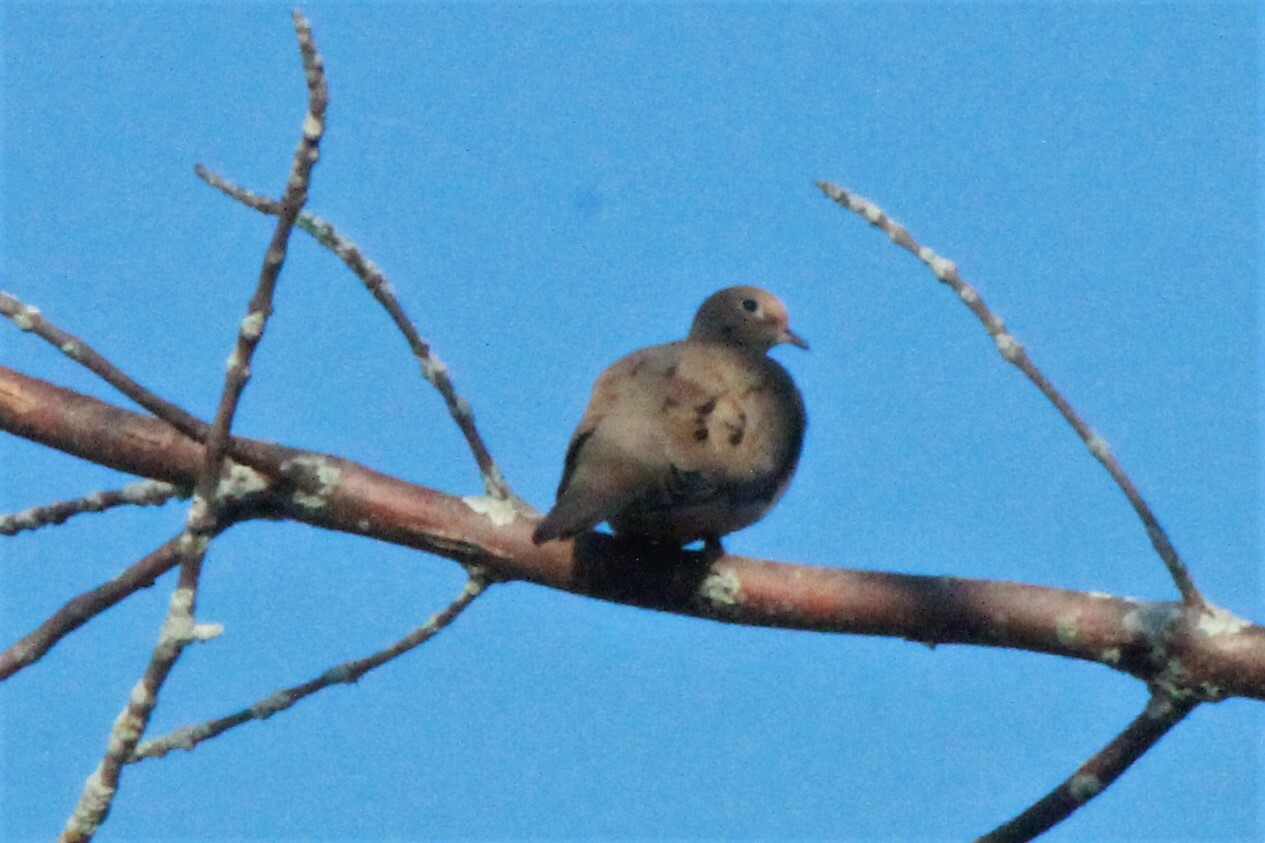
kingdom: Animalia
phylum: Chordata
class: Aves
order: Columbiformes
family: Columbidae
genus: Zenaida
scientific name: Zenaida macroura
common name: Mourning dove
